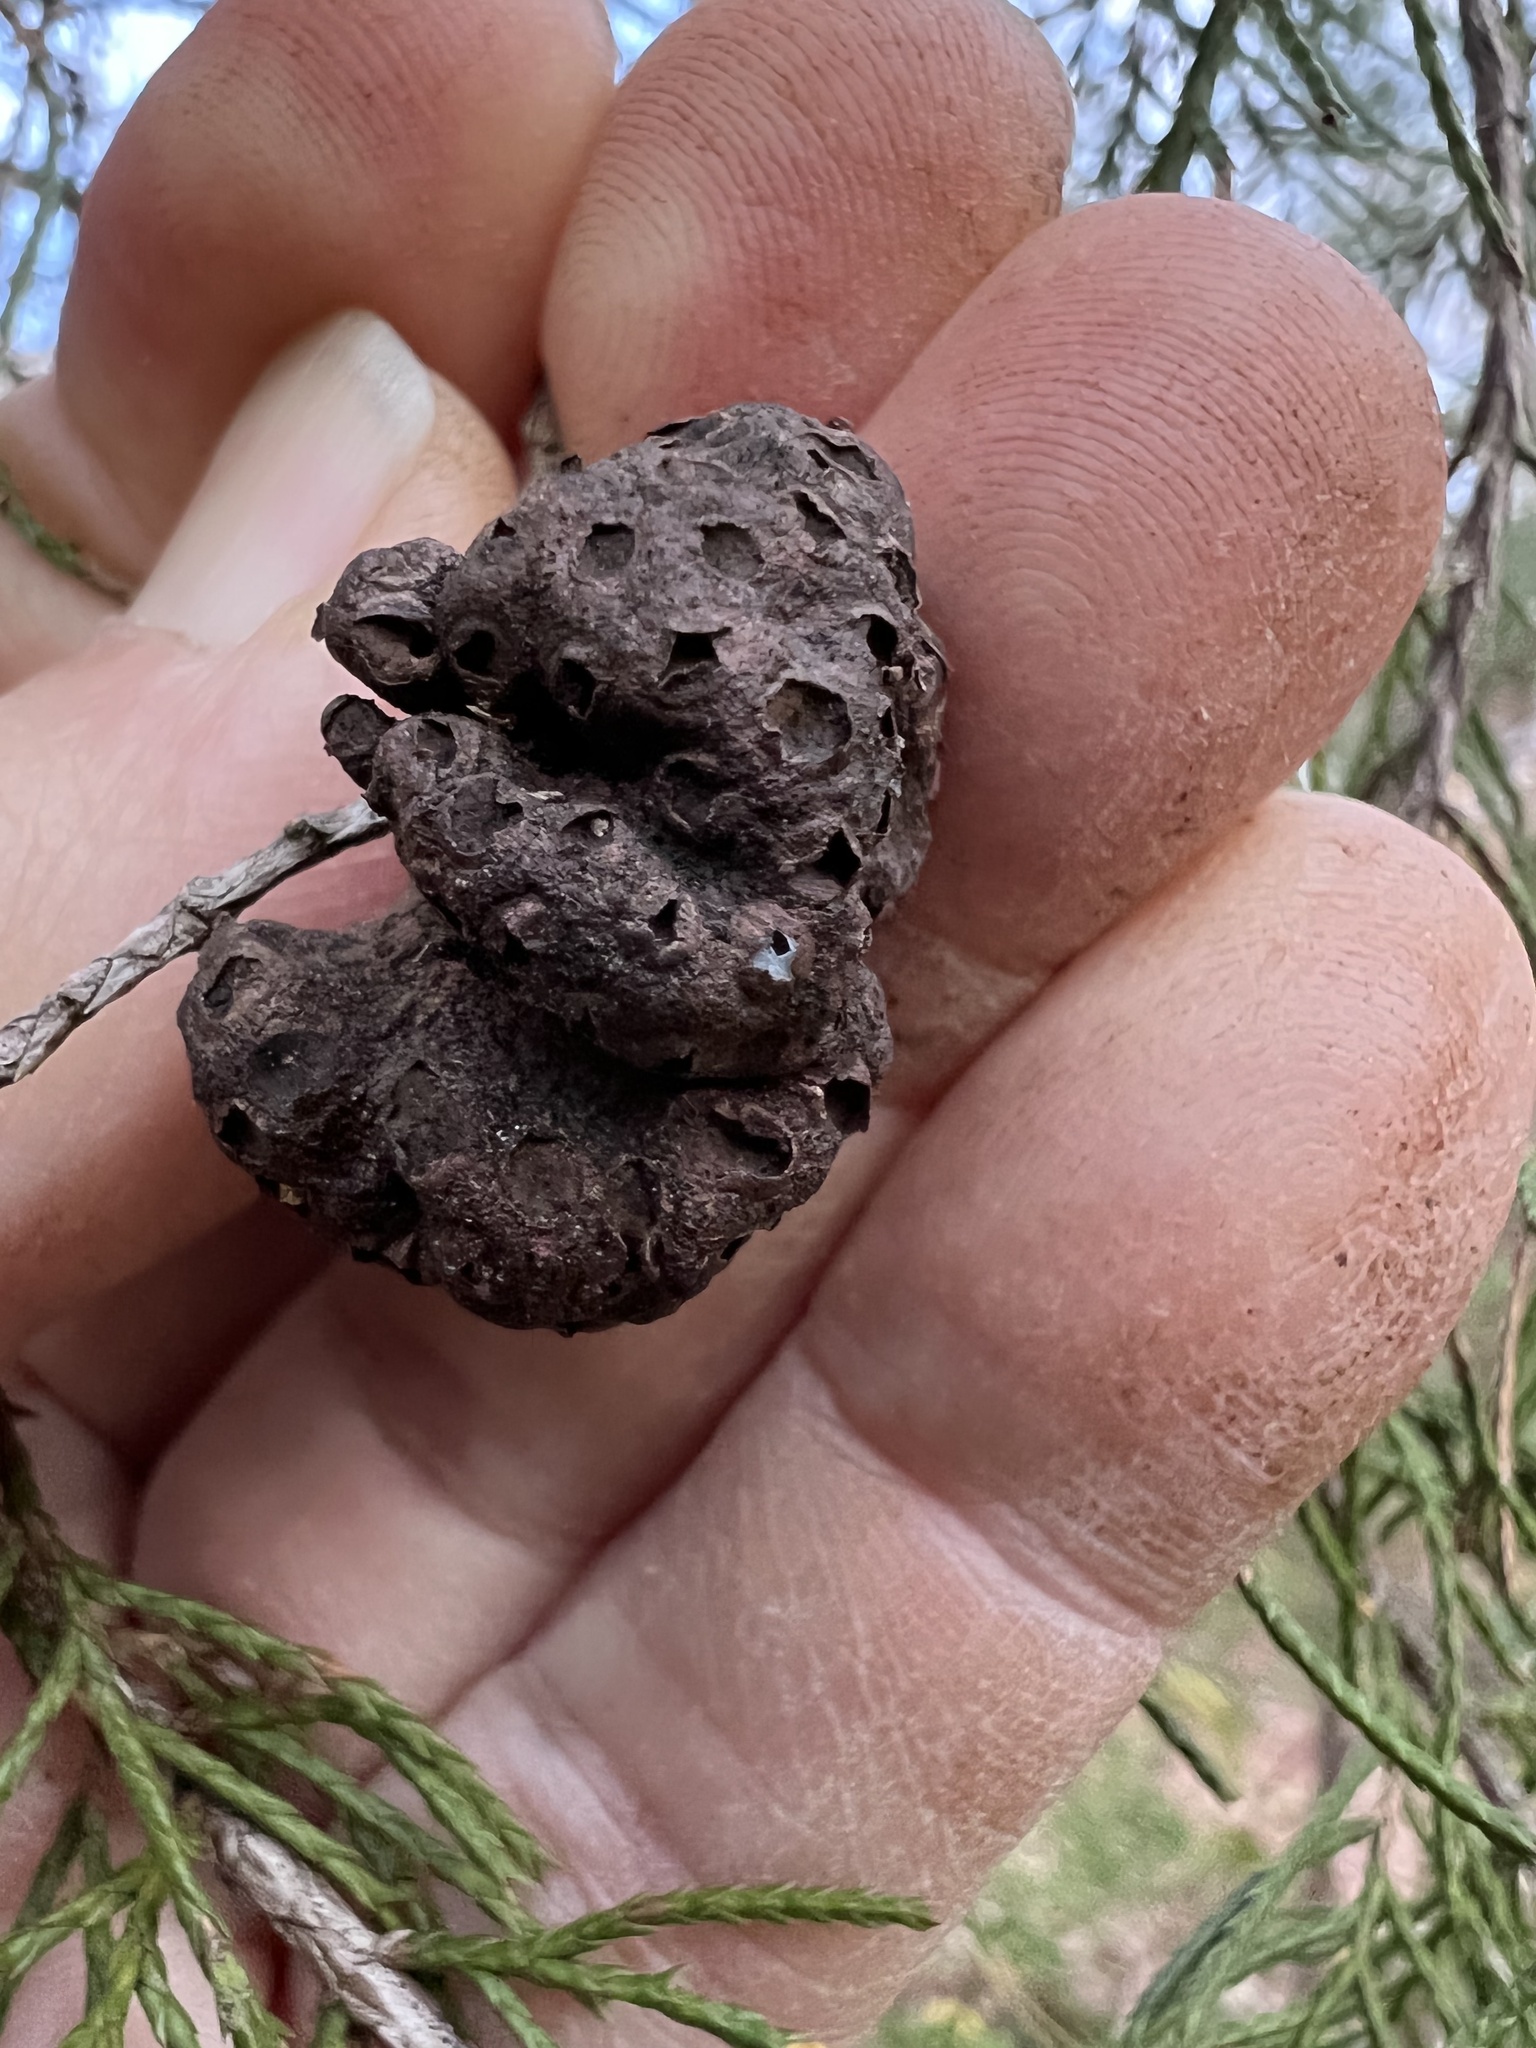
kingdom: Fungi
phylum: Basidiomycota
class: Pucciniomycetes
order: Pucciniales
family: Gymnosporangiaceae
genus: Gymnosporangium
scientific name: Gymnosporangium juniperi-virginianae
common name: Juniper-apple rust
